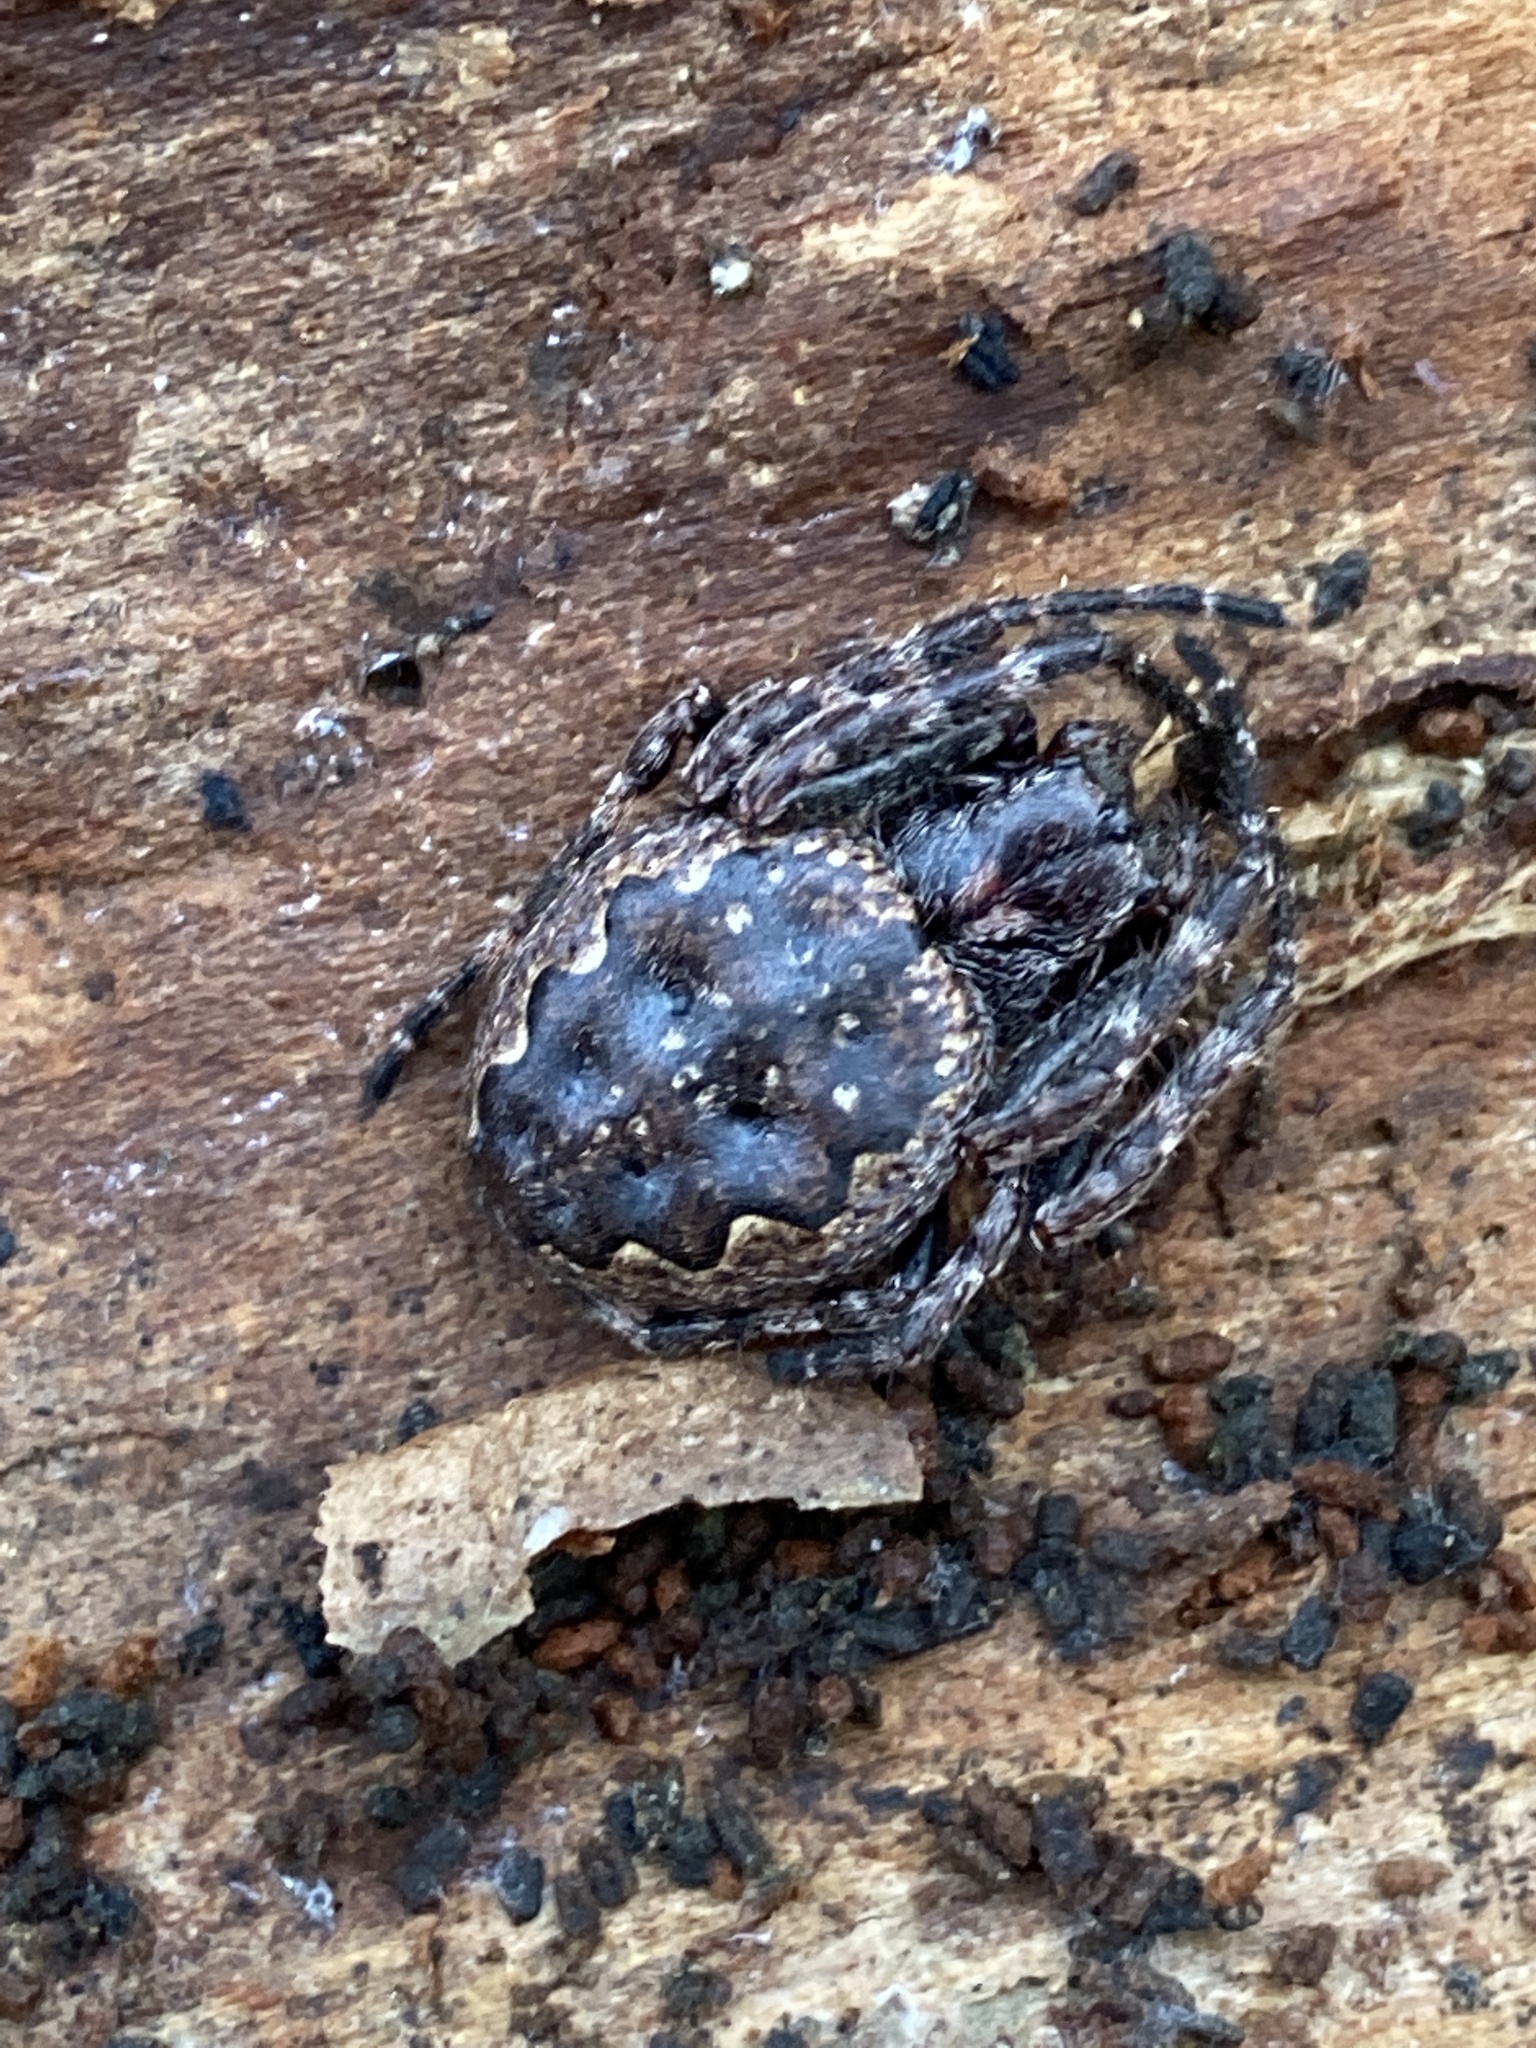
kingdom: Animalia
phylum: Arthropoda
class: Arachnida
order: Araneae
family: Araneidae
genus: Nuctenea
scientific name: Nuctenea umbratica
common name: Toad spider
